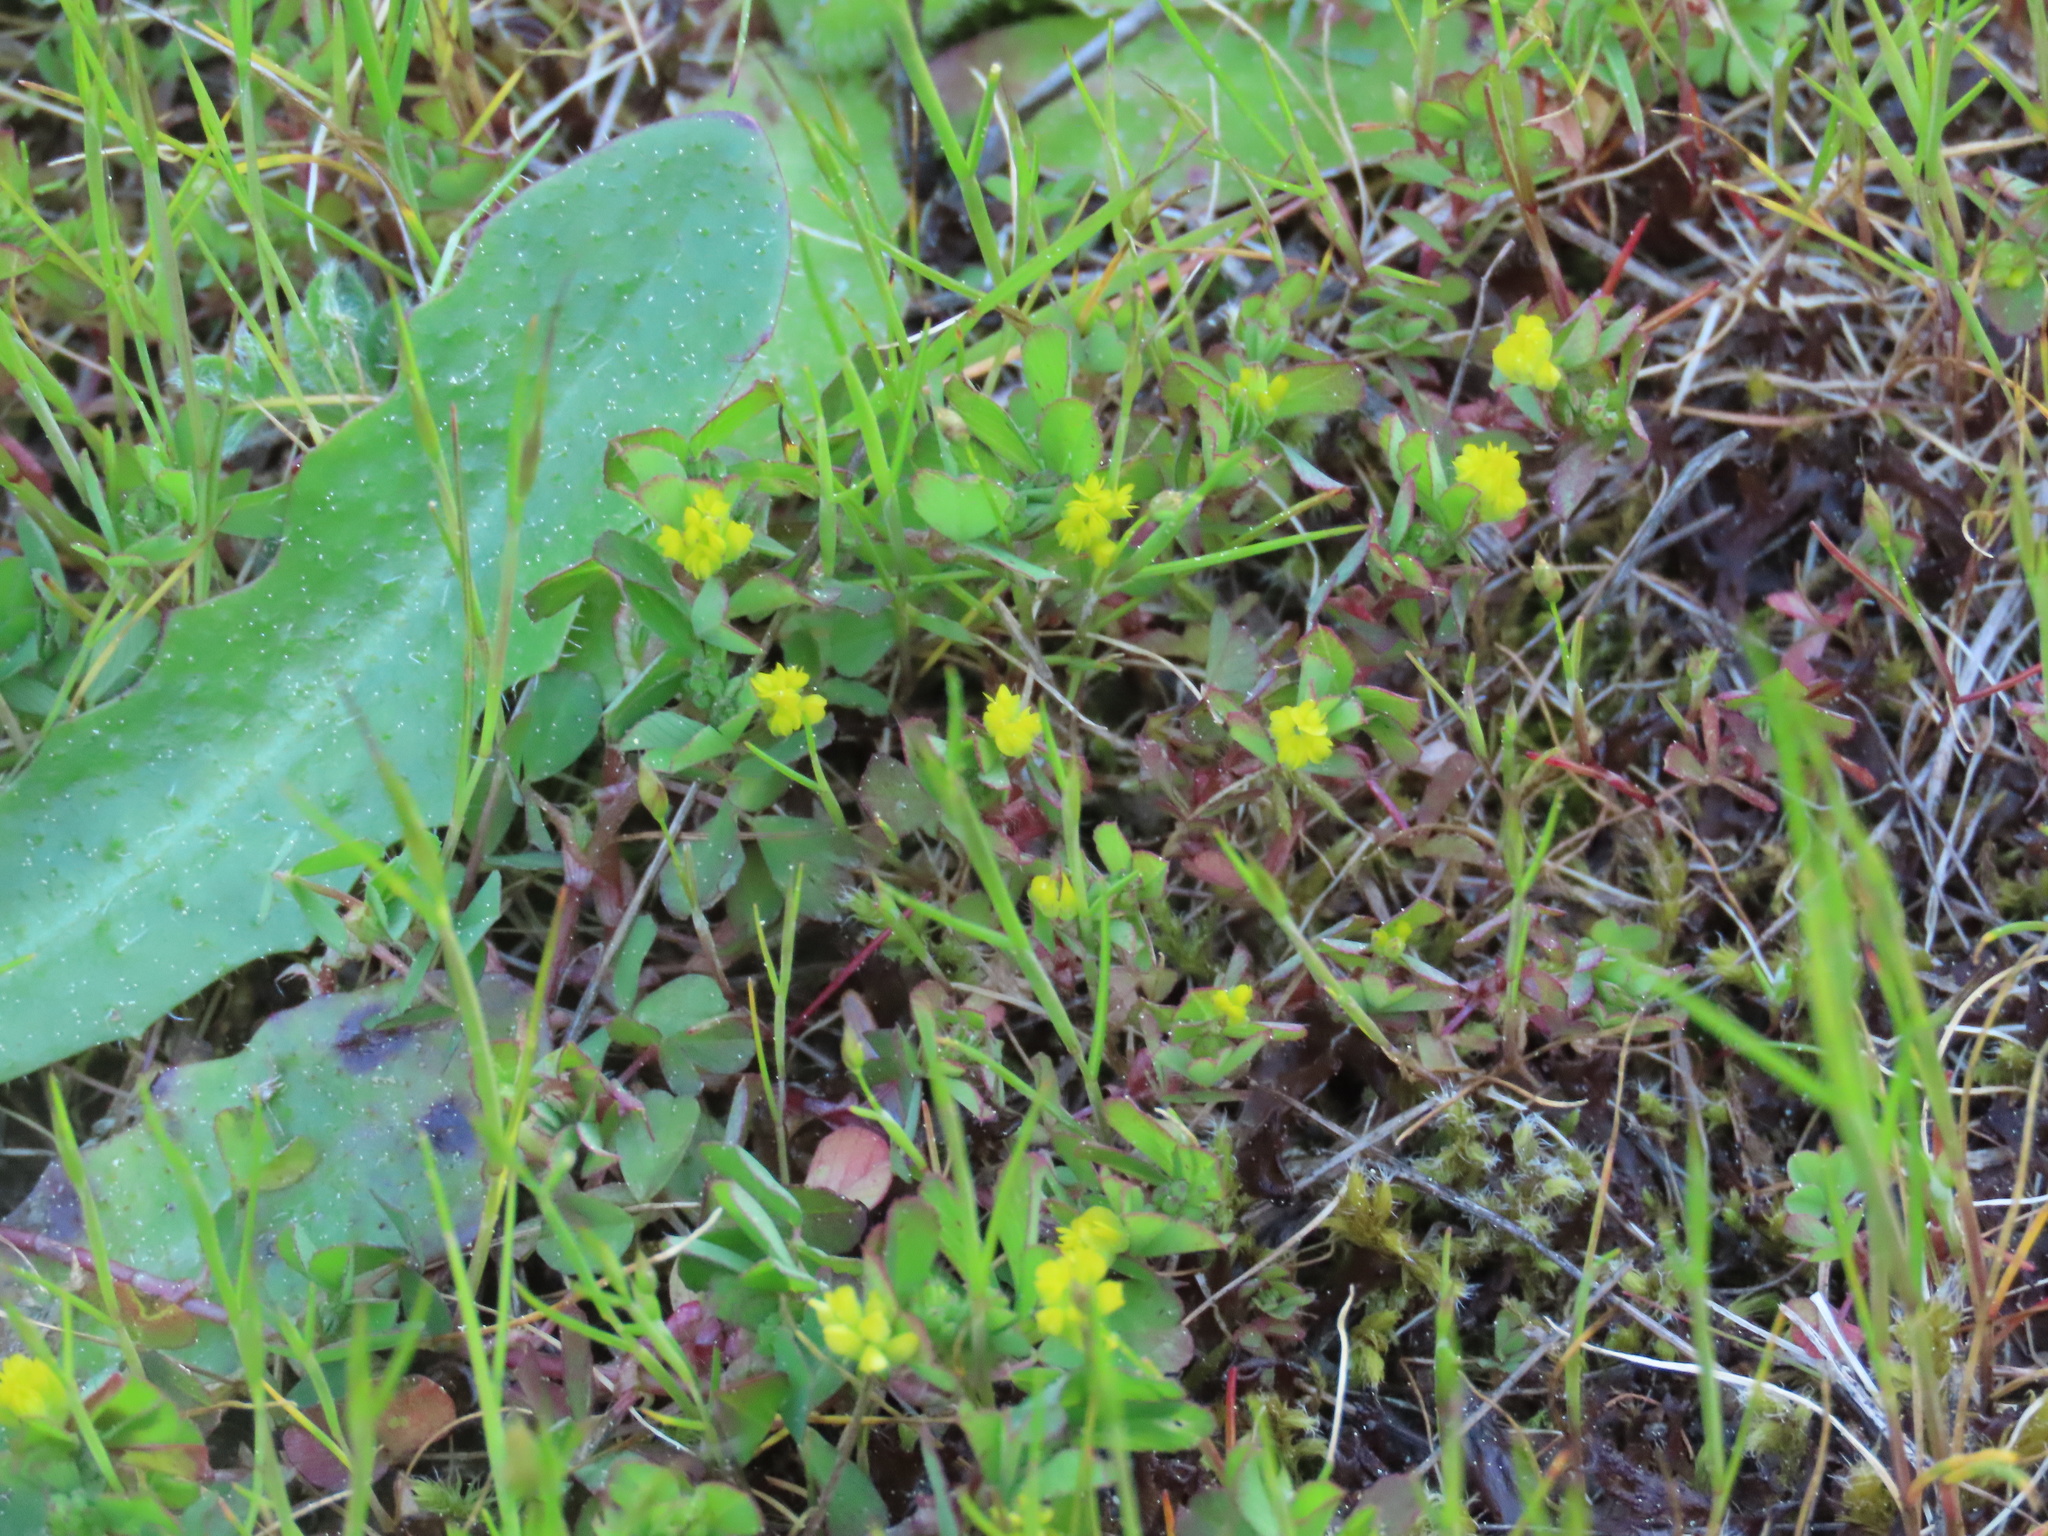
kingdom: Plantae
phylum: Tracheophyta
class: Magnoliopsida
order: Fabales
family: Fabaceae
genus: Trifolium
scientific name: Trifolium dubium
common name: Suckling clover
